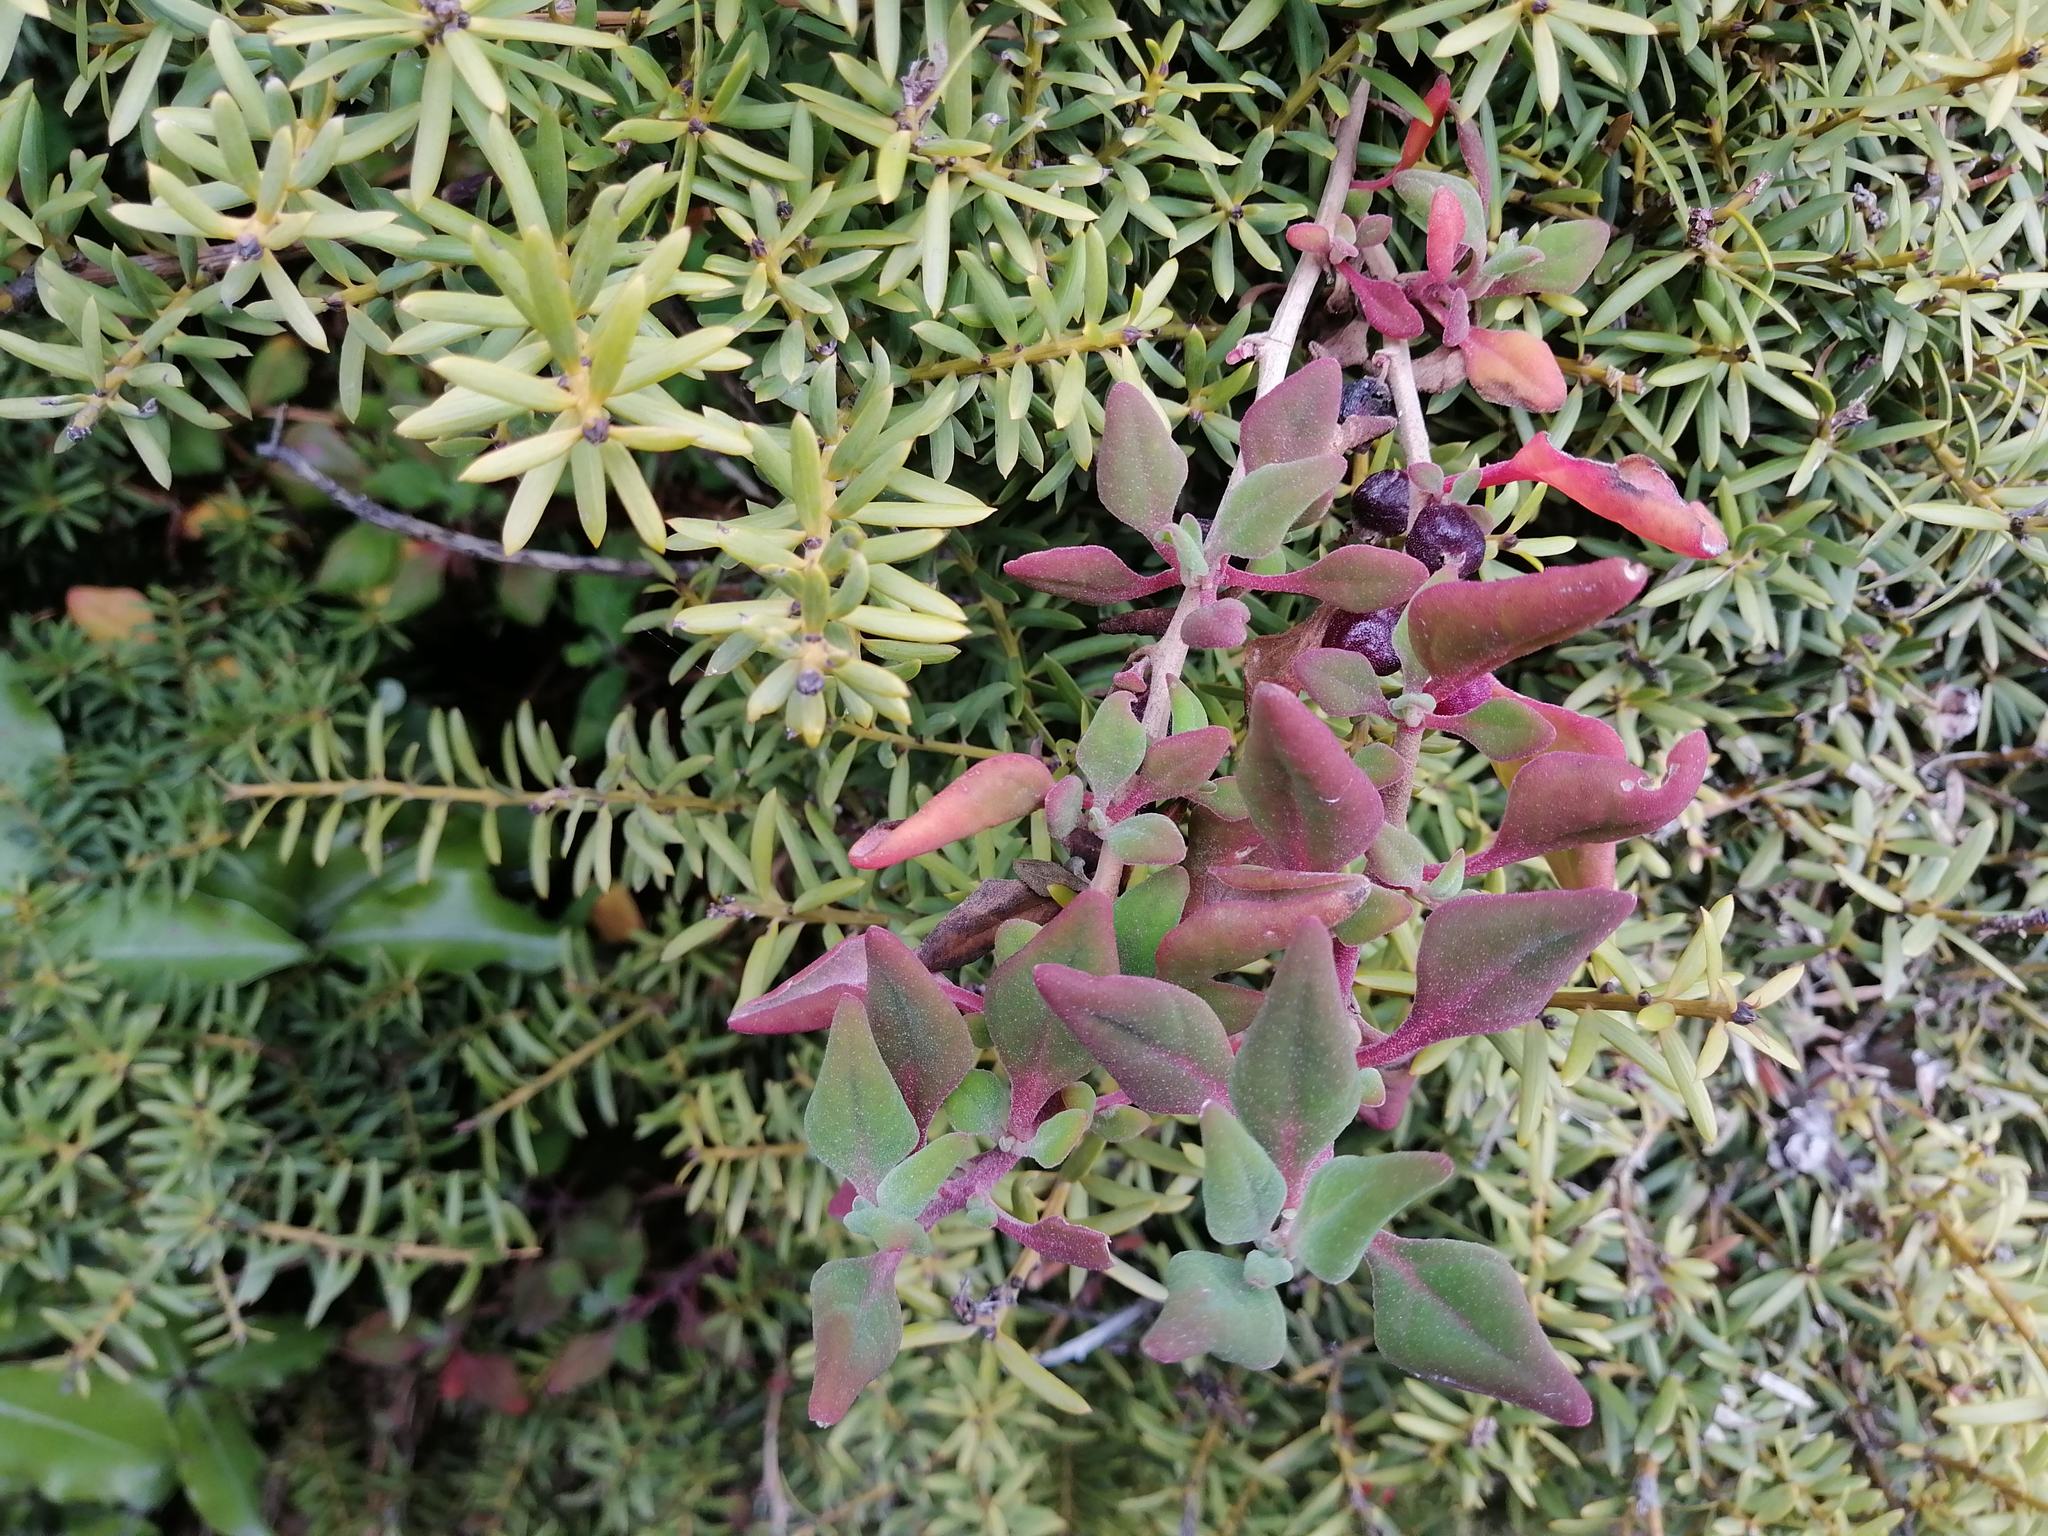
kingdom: Plantae
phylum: Tracheophyta
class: Magnoliopsida
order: Caryophyllales
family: Aizoaceae
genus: Tetragonia
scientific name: Tetragonia implexicoma
